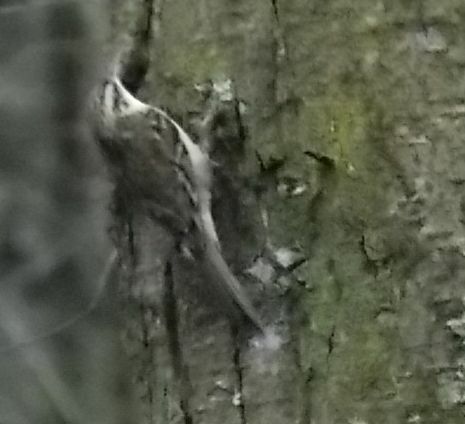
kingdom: Animalia
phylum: Chordata
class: Aves
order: Passeriformes
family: Certhiidae
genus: Certhia
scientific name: Certhia familiaris
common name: Eurasian treecreeper
